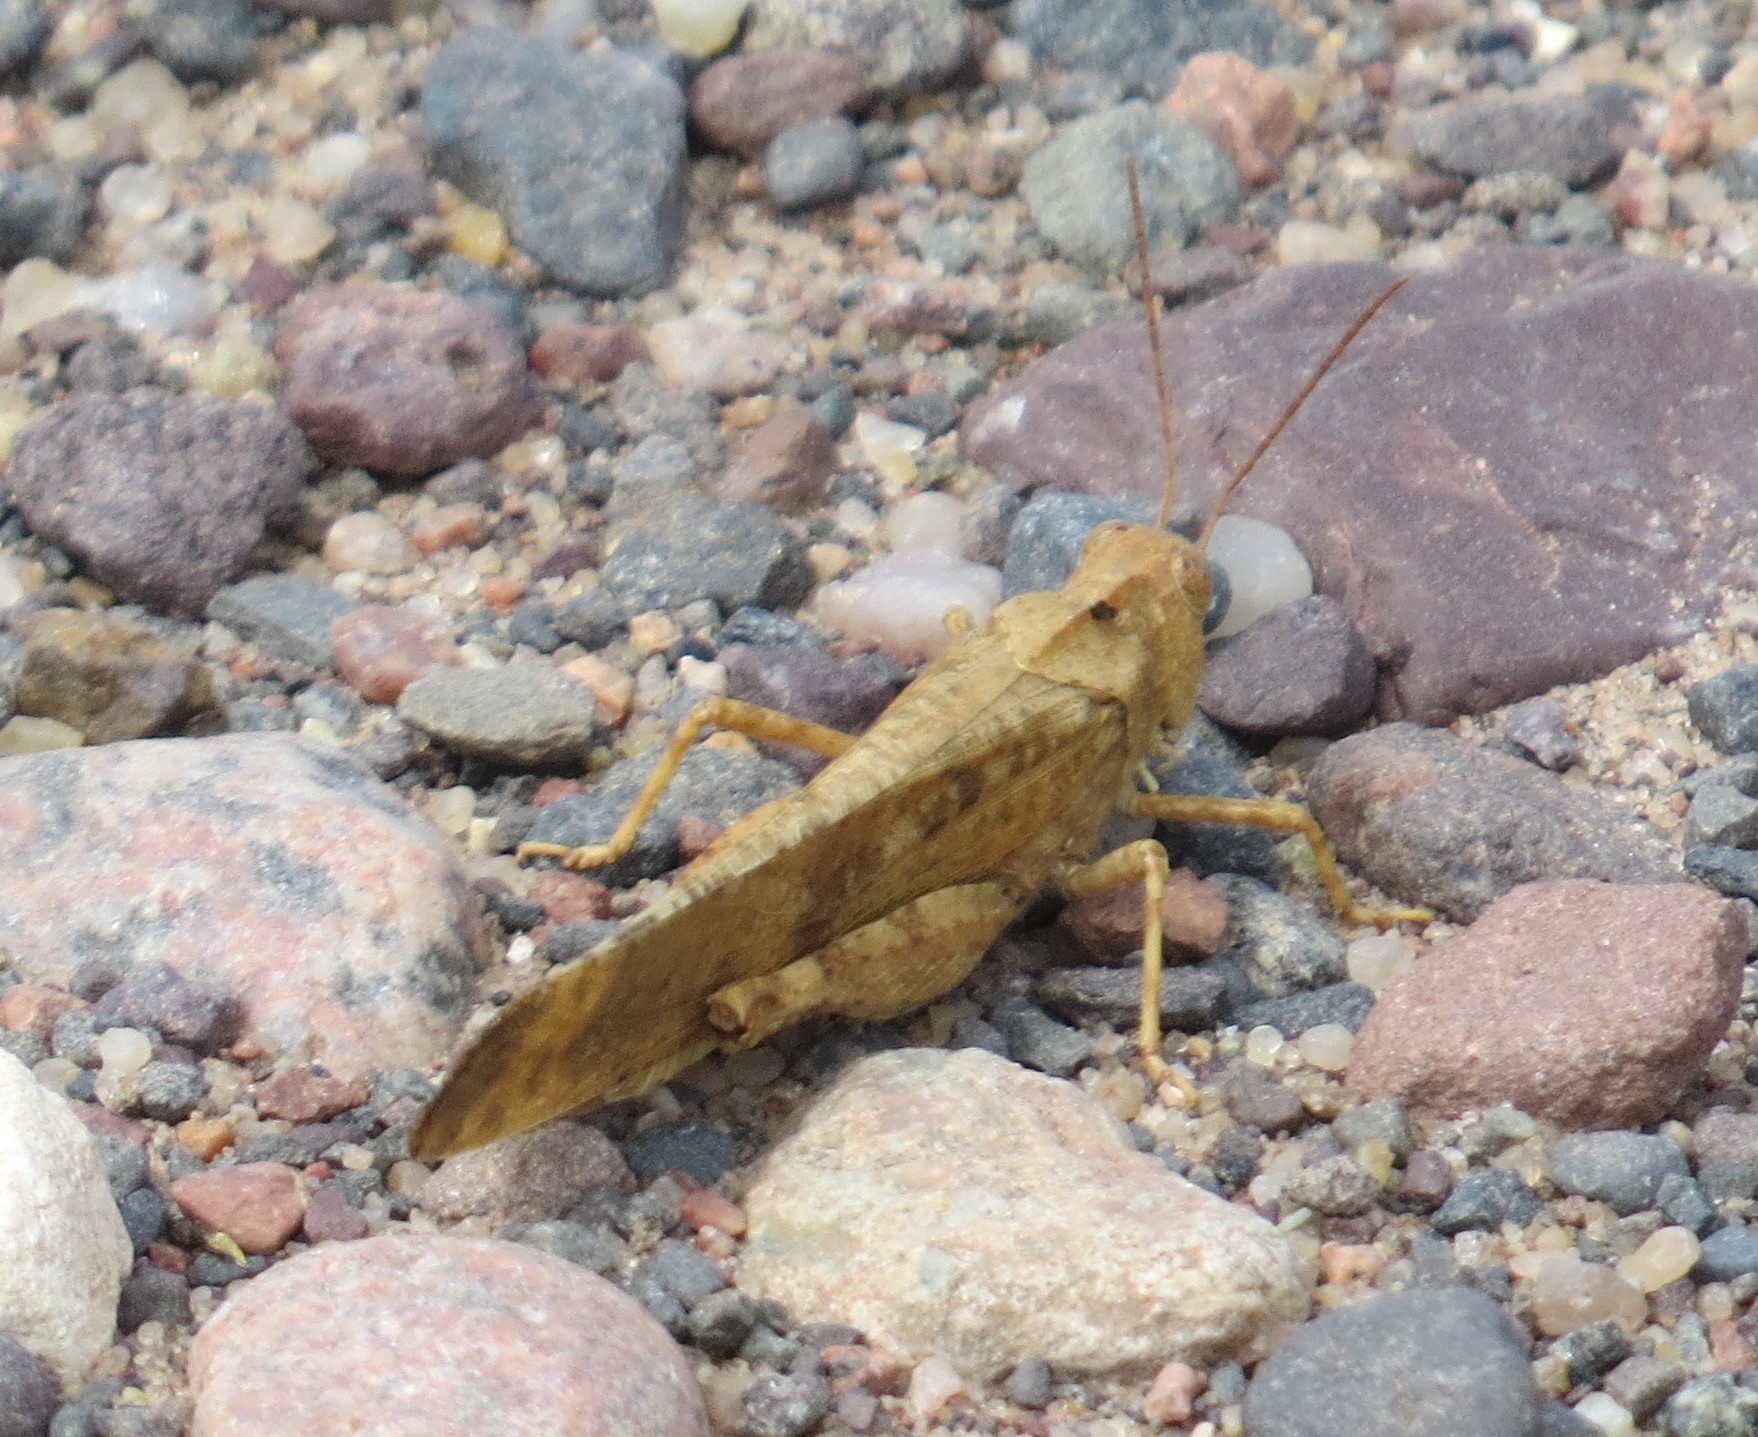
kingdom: Animalia
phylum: Arthropoda
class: Insecta
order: Orthoptera
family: Acrididae
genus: Dissosteira
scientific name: Dissosteira carolina
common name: Carolina grasshopper
